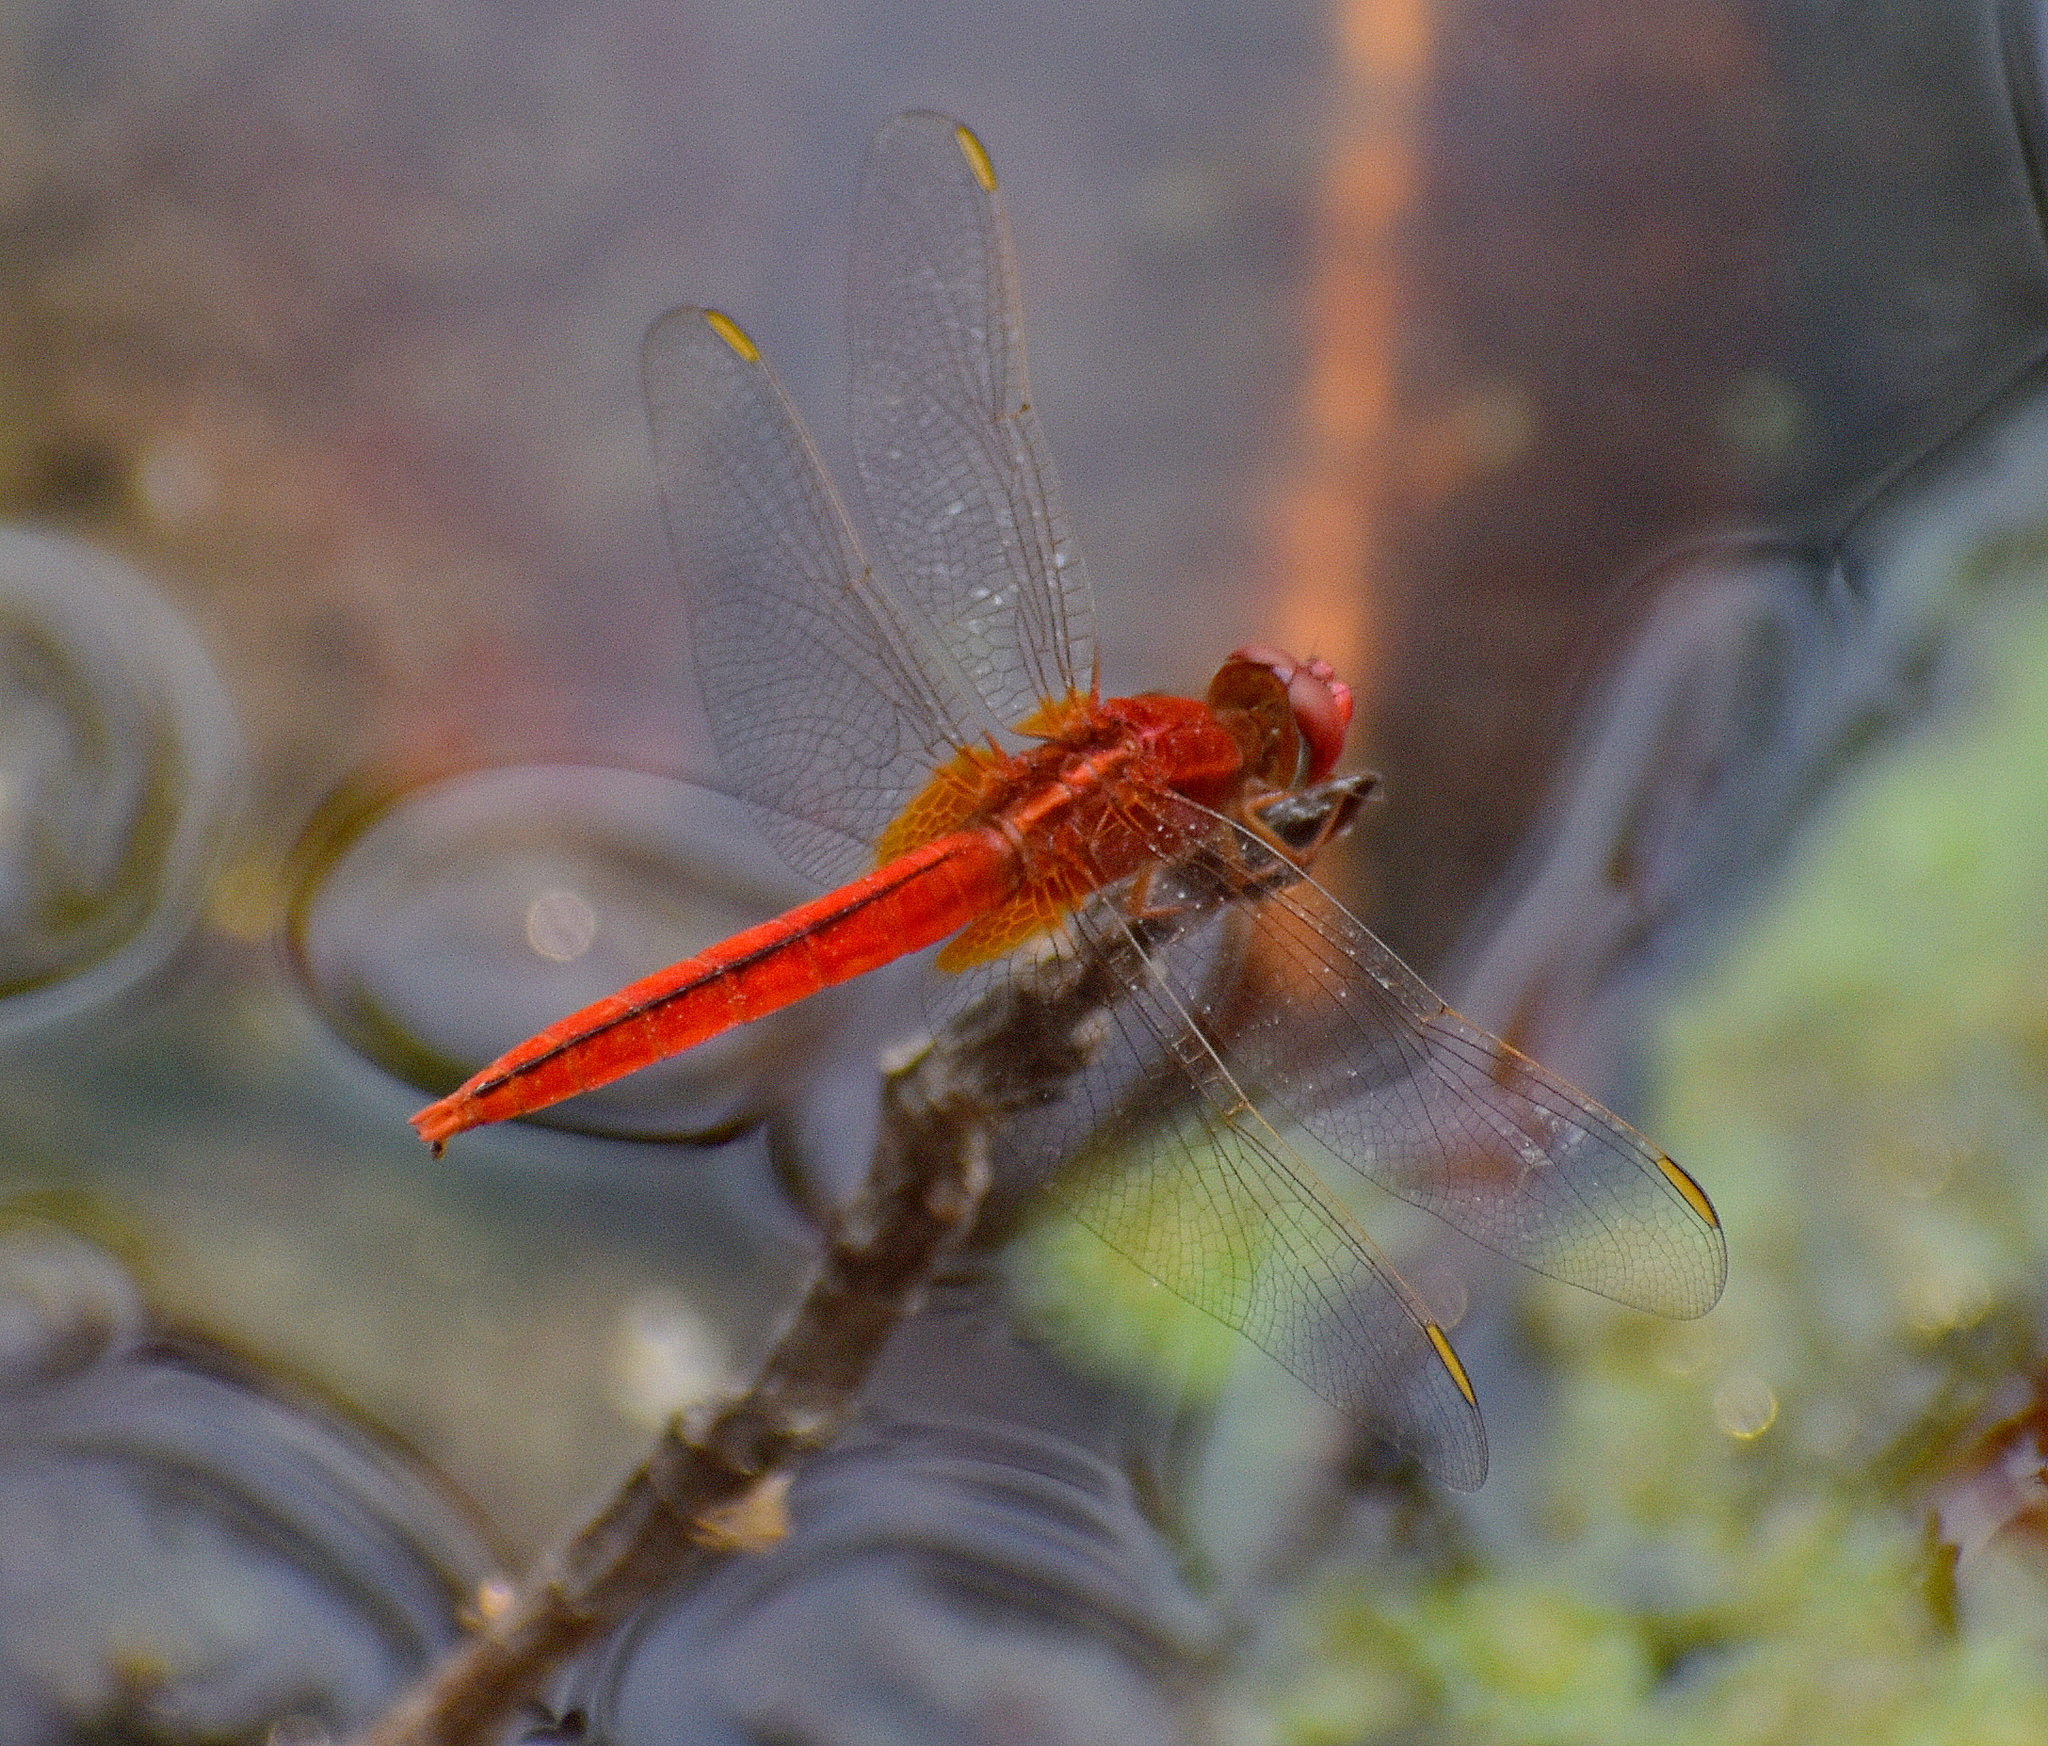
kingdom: Animalia
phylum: Arthropoda
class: Insecta
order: Odonata
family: Libellulidae
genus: Crocothemis
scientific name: Crocothemis servilia
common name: Scarlet skimmer
